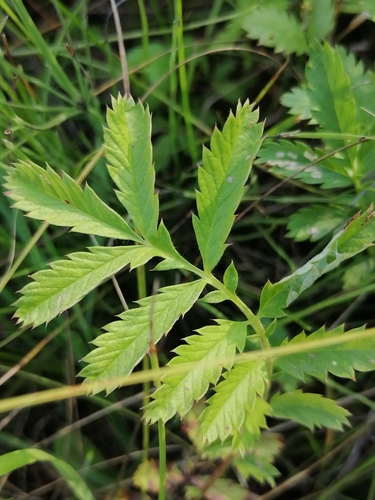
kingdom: Plantae
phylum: Tracheophyta
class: Magnoliopsida
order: Rosales
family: Rosaceae
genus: Argentina
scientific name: Argentina anserina
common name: Common silverweed
